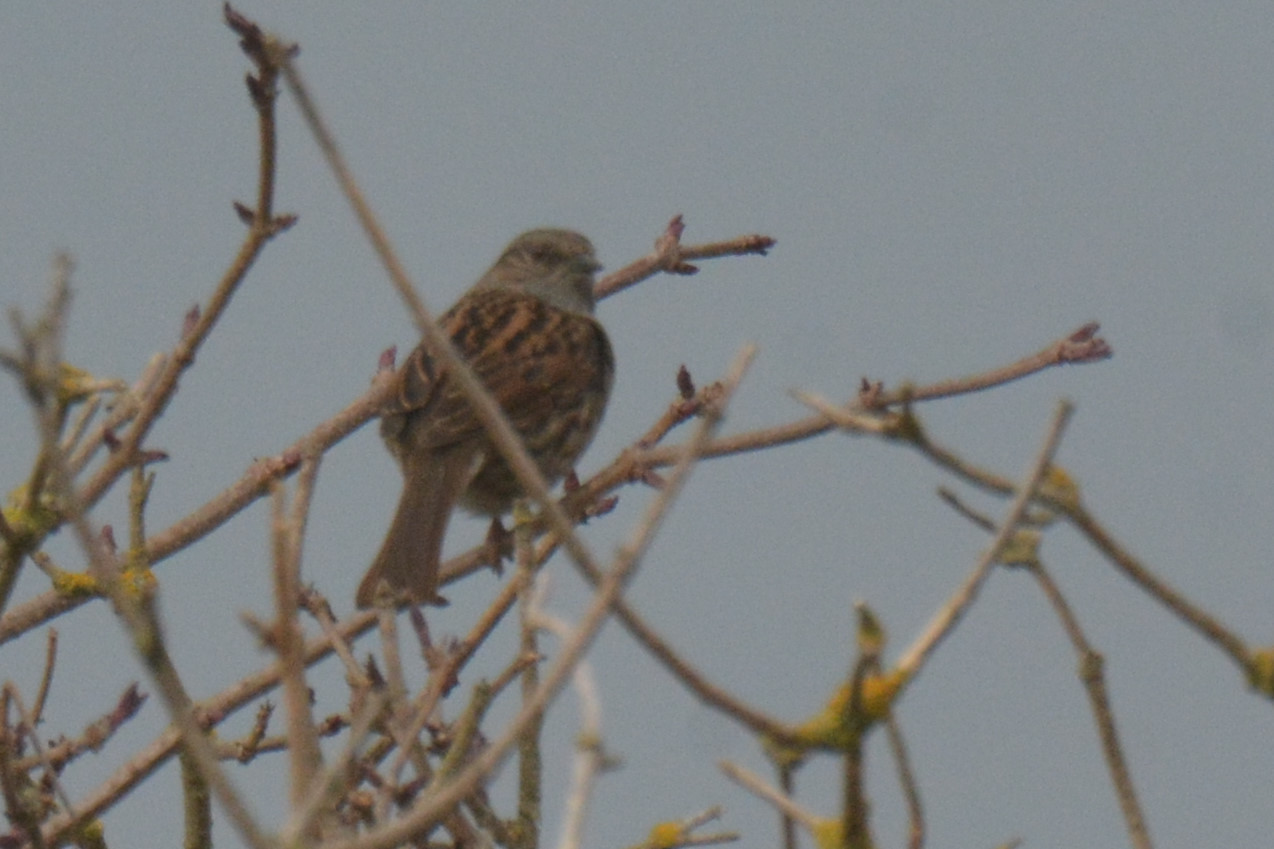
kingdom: Animalia
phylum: Chordata
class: Aves
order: Passeriformes
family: Prunellidae
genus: Prunella
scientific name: Prunella modularis
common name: Dunnock
